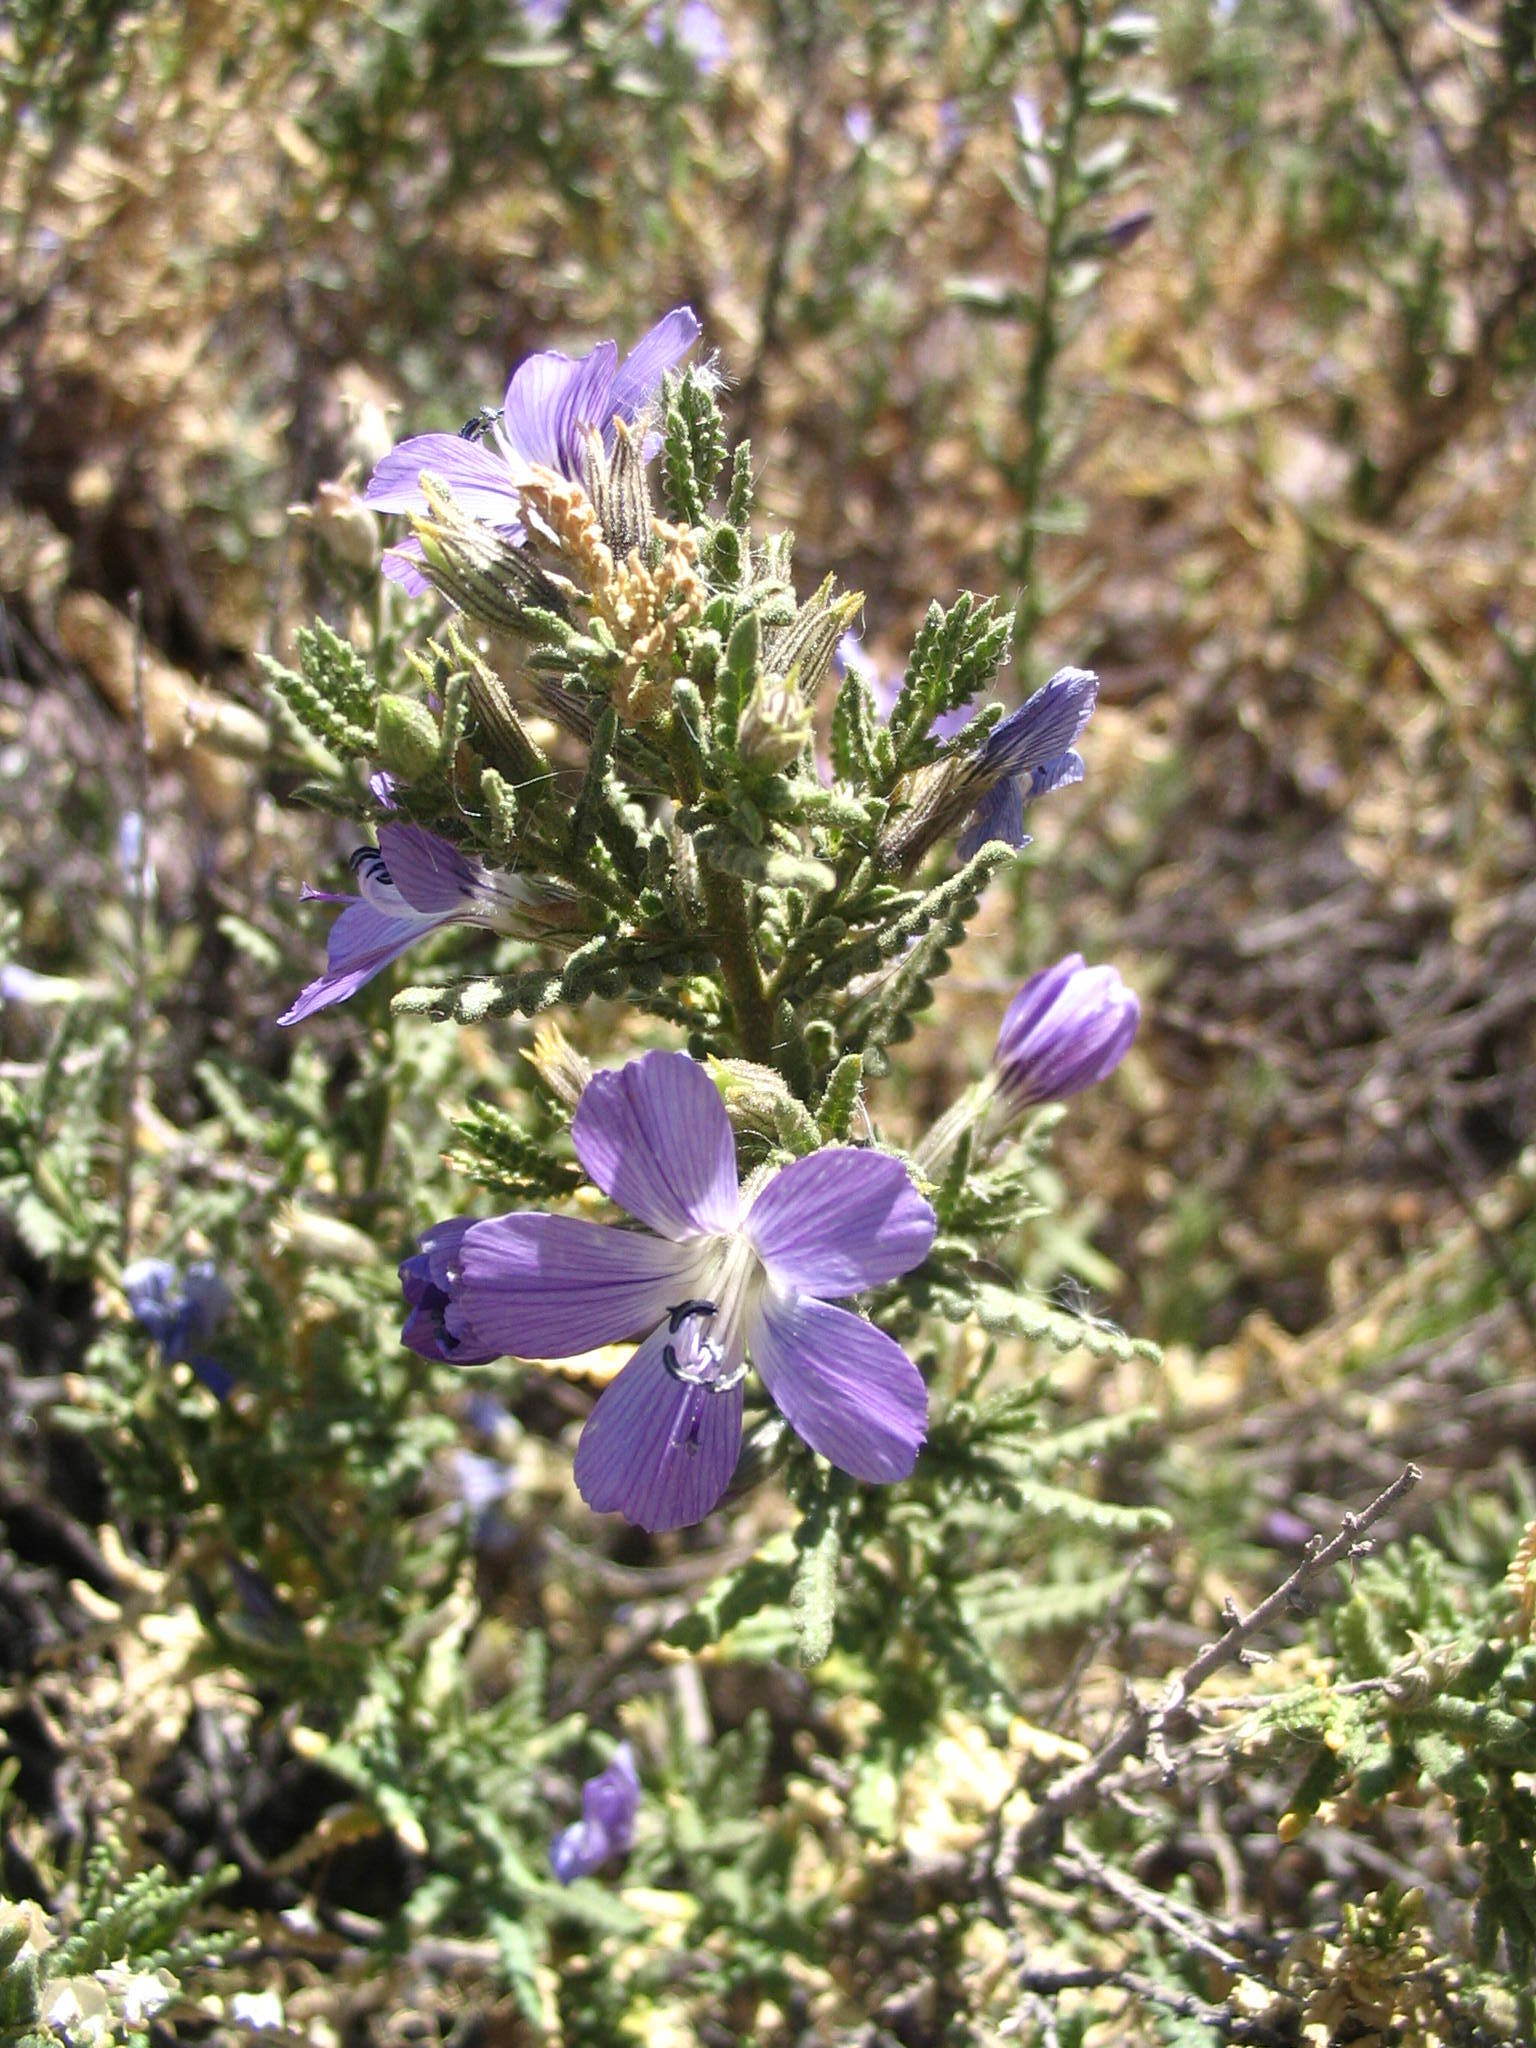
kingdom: Plantae
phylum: Tracheophyta
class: Magnoliopsida
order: Ericales
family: Polemoniaceae
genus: Cantua
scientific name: Cantua volcanica
